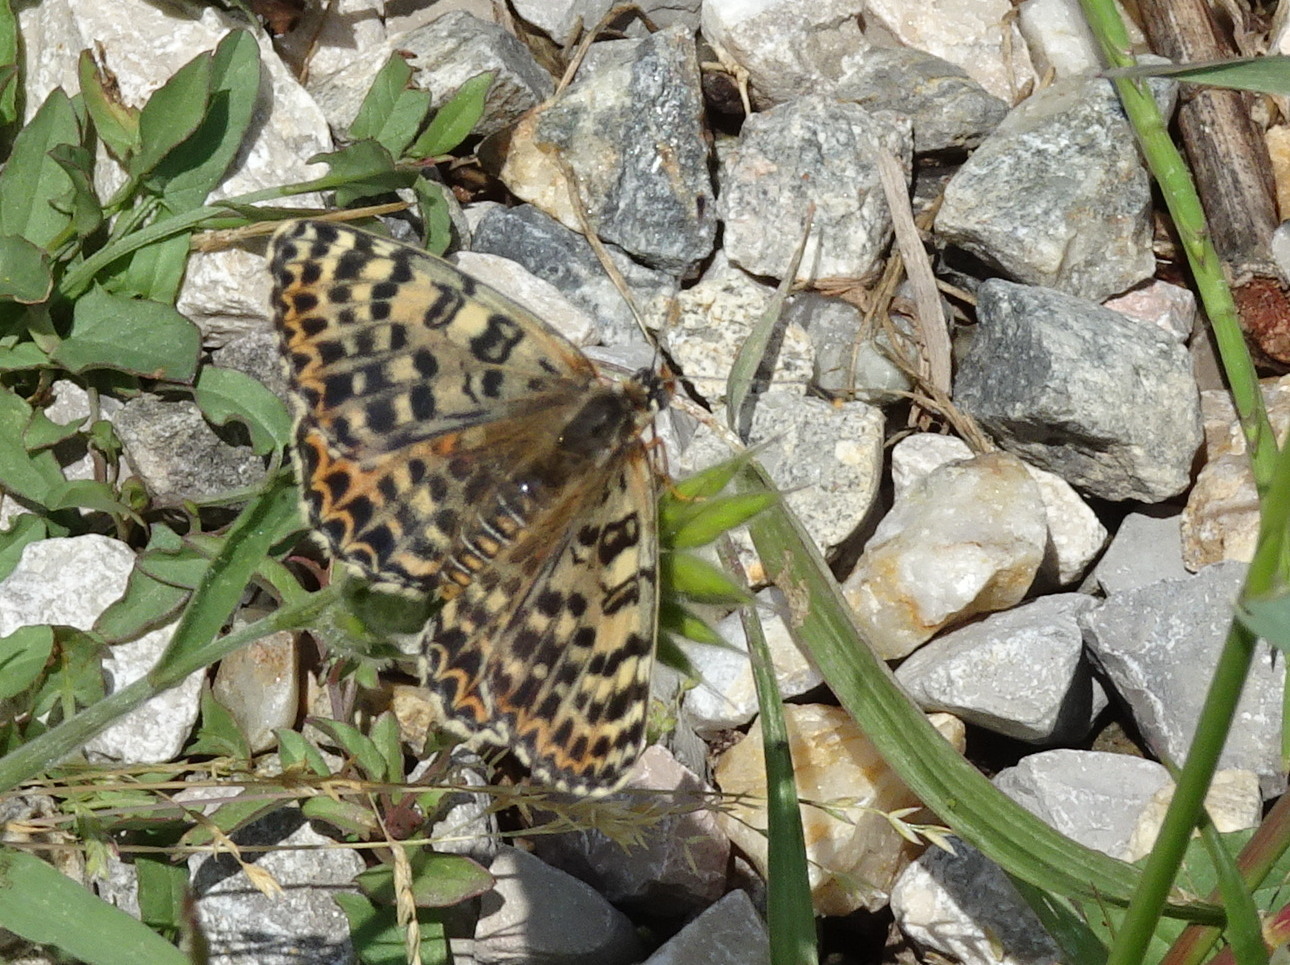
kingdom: Animalia
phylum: Arthropoda
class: Insecta
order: Lepidoptera
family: Nymphalidae
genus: Melitaea
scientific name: Melitaea didyma
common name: Spotted fritillary
